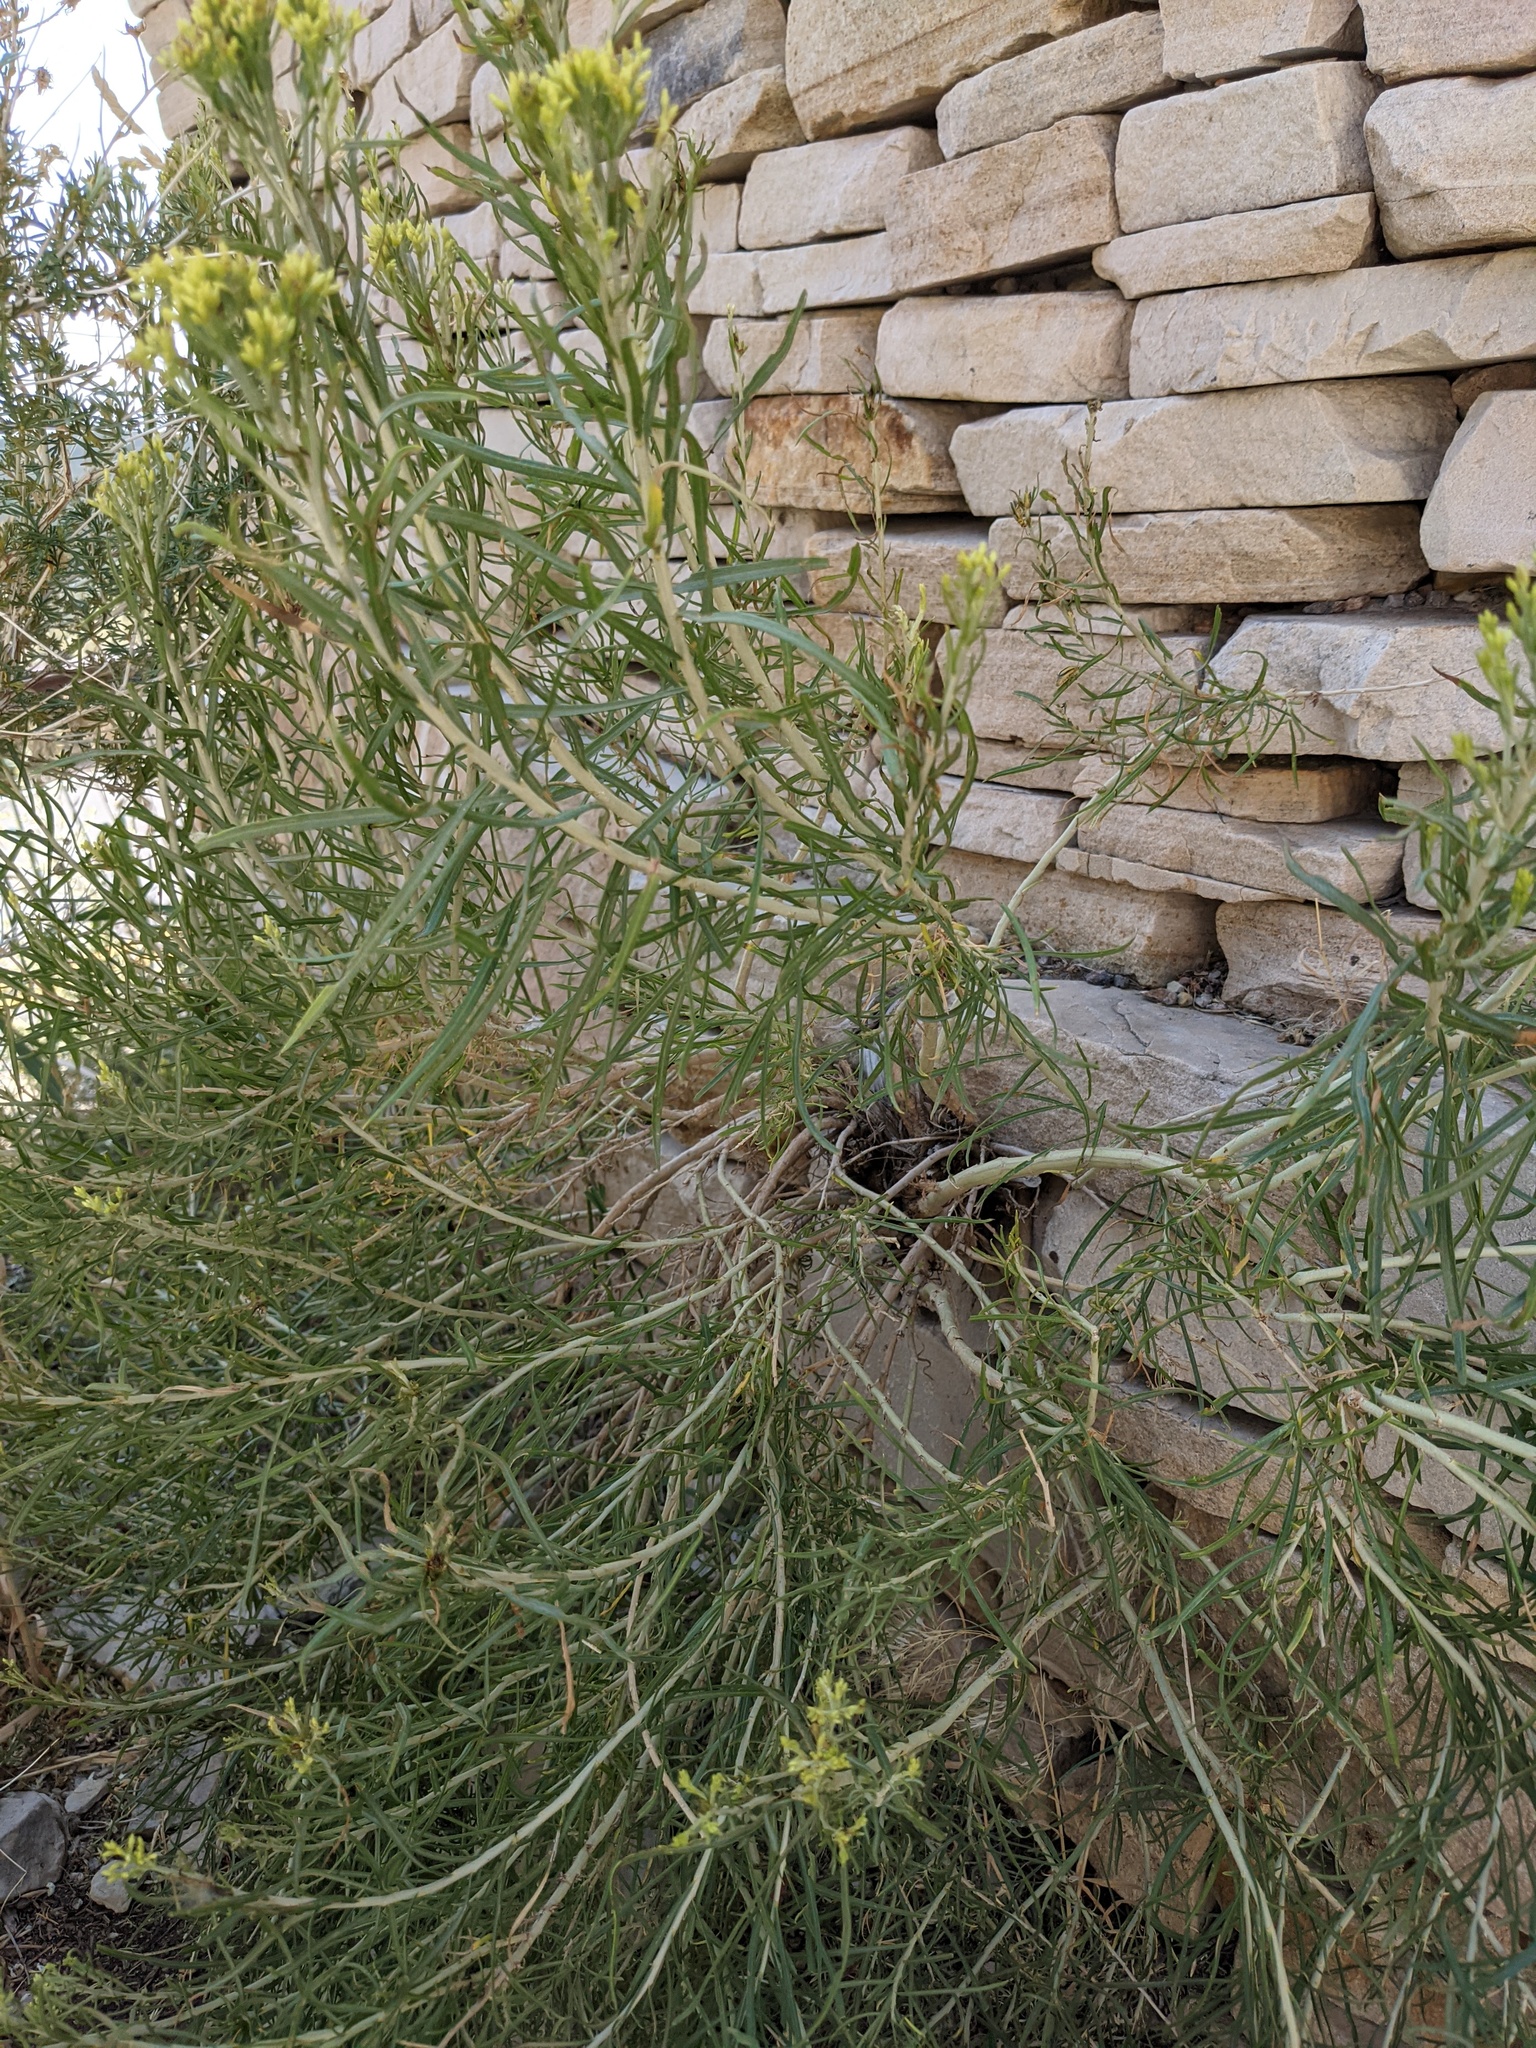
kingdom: Plantae
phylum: Tracheophyta
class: Magnoliopsida
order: Asterales
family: Asteraceae
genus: Ericameria
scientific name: Ericameria nauseosa
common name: Rubber rabbitbrush
